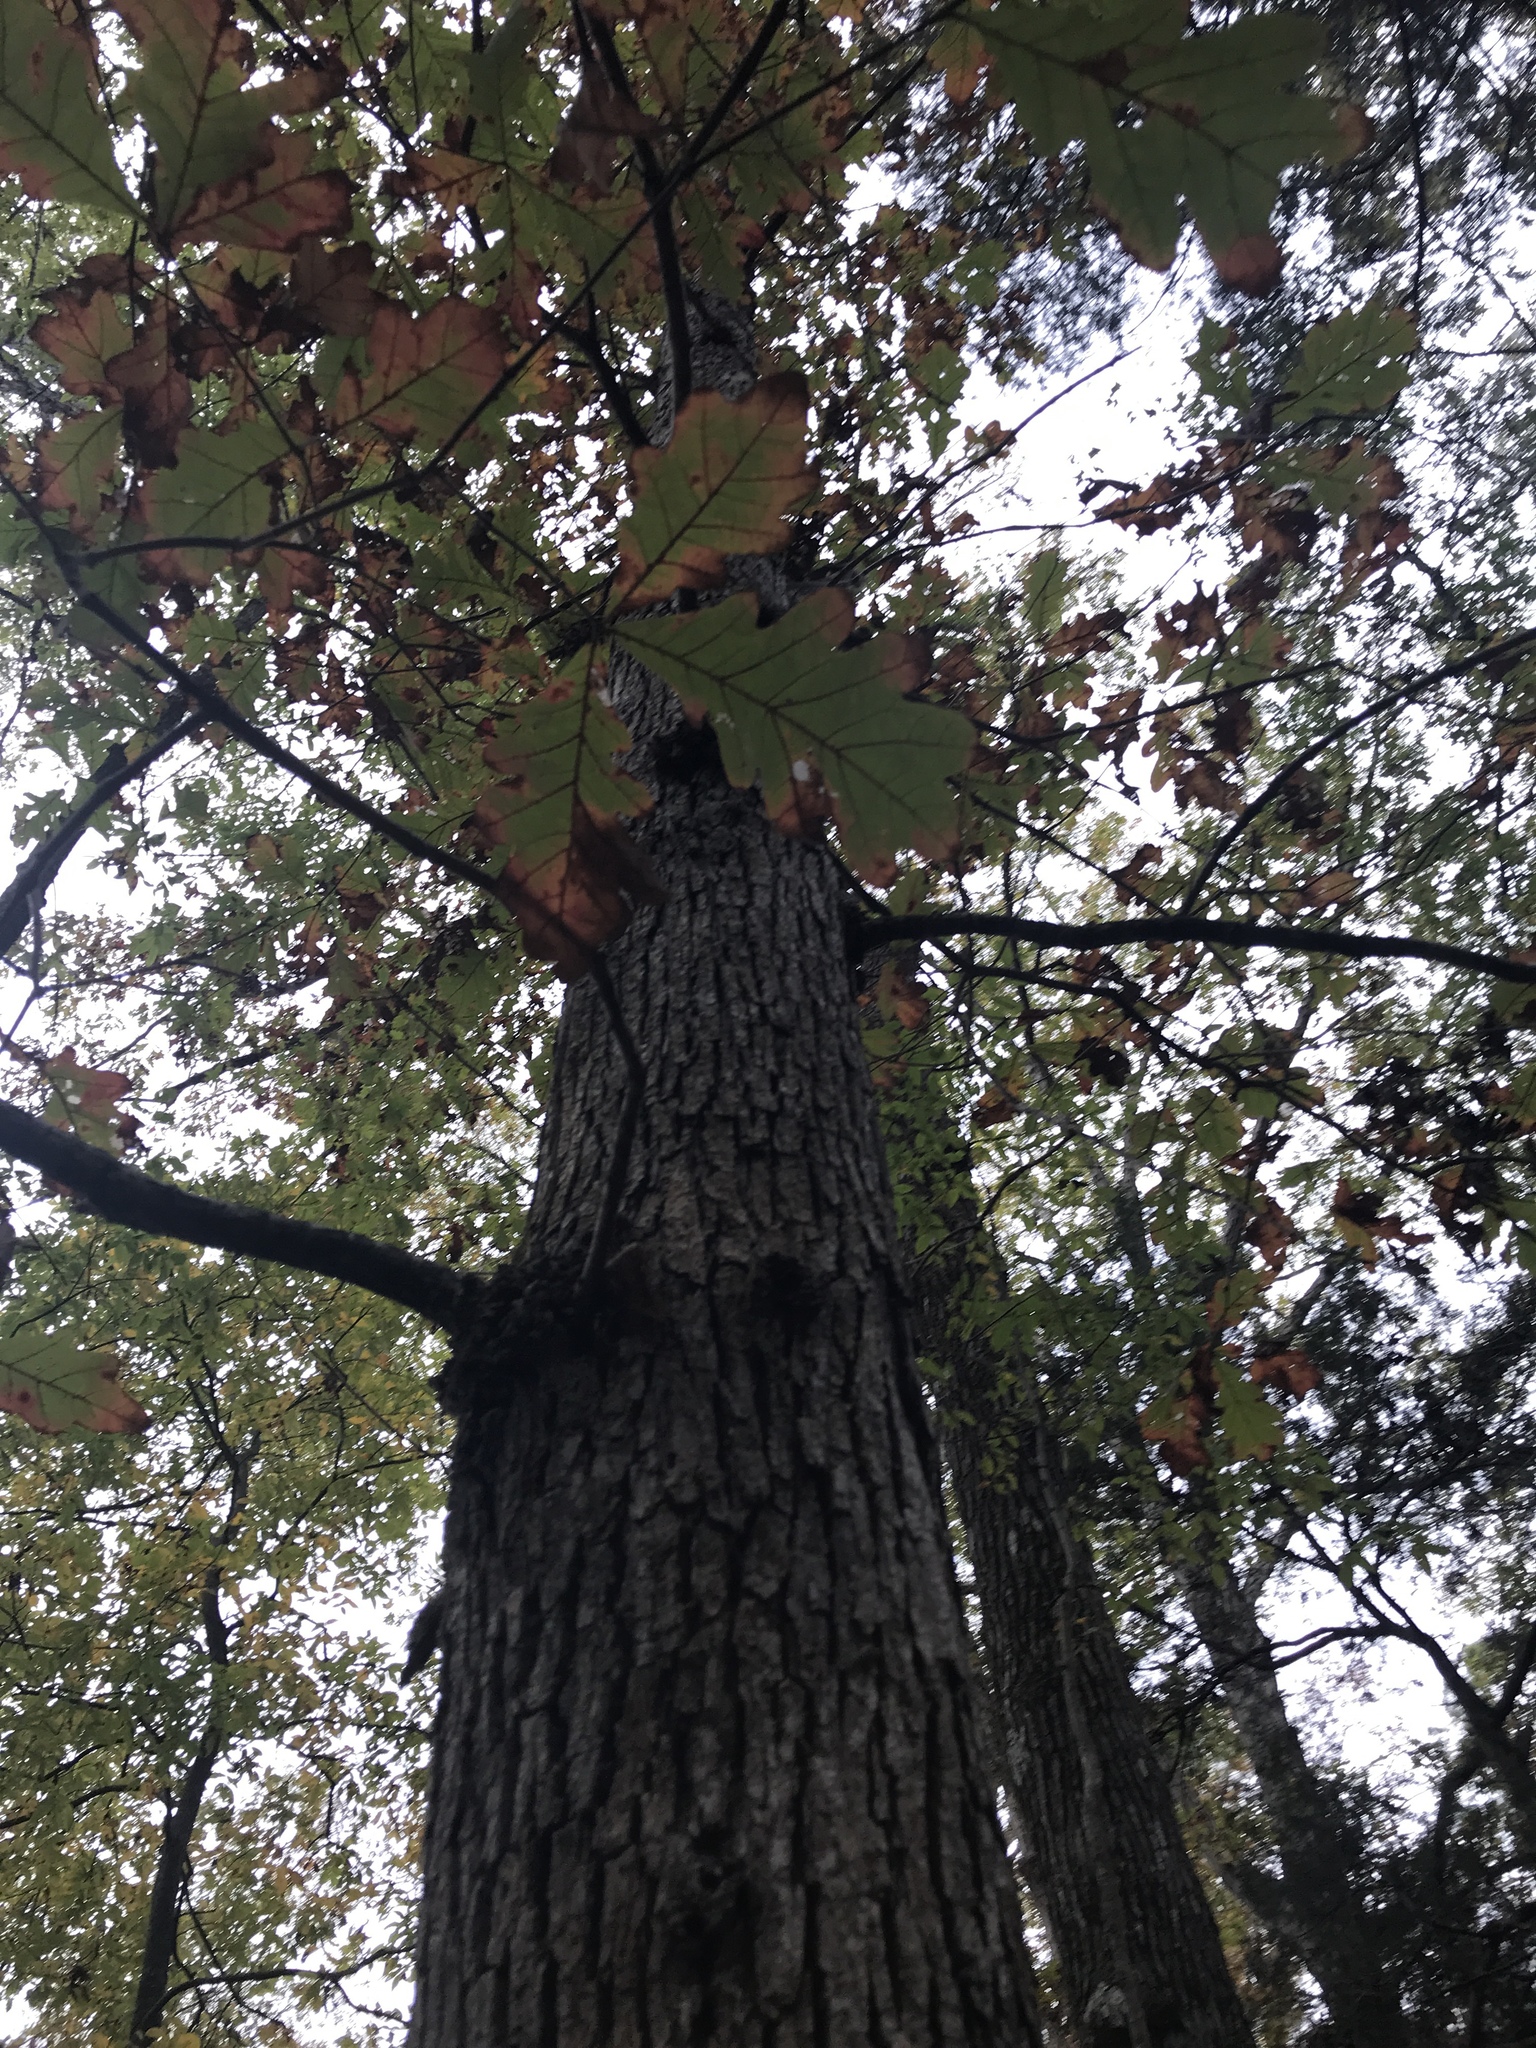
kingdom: Plantae
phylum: Tracheophyta
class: Magnoliopsida
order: Fagales
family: Fagaceae
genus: Quercus
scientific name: Quercus alba
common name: White oak
